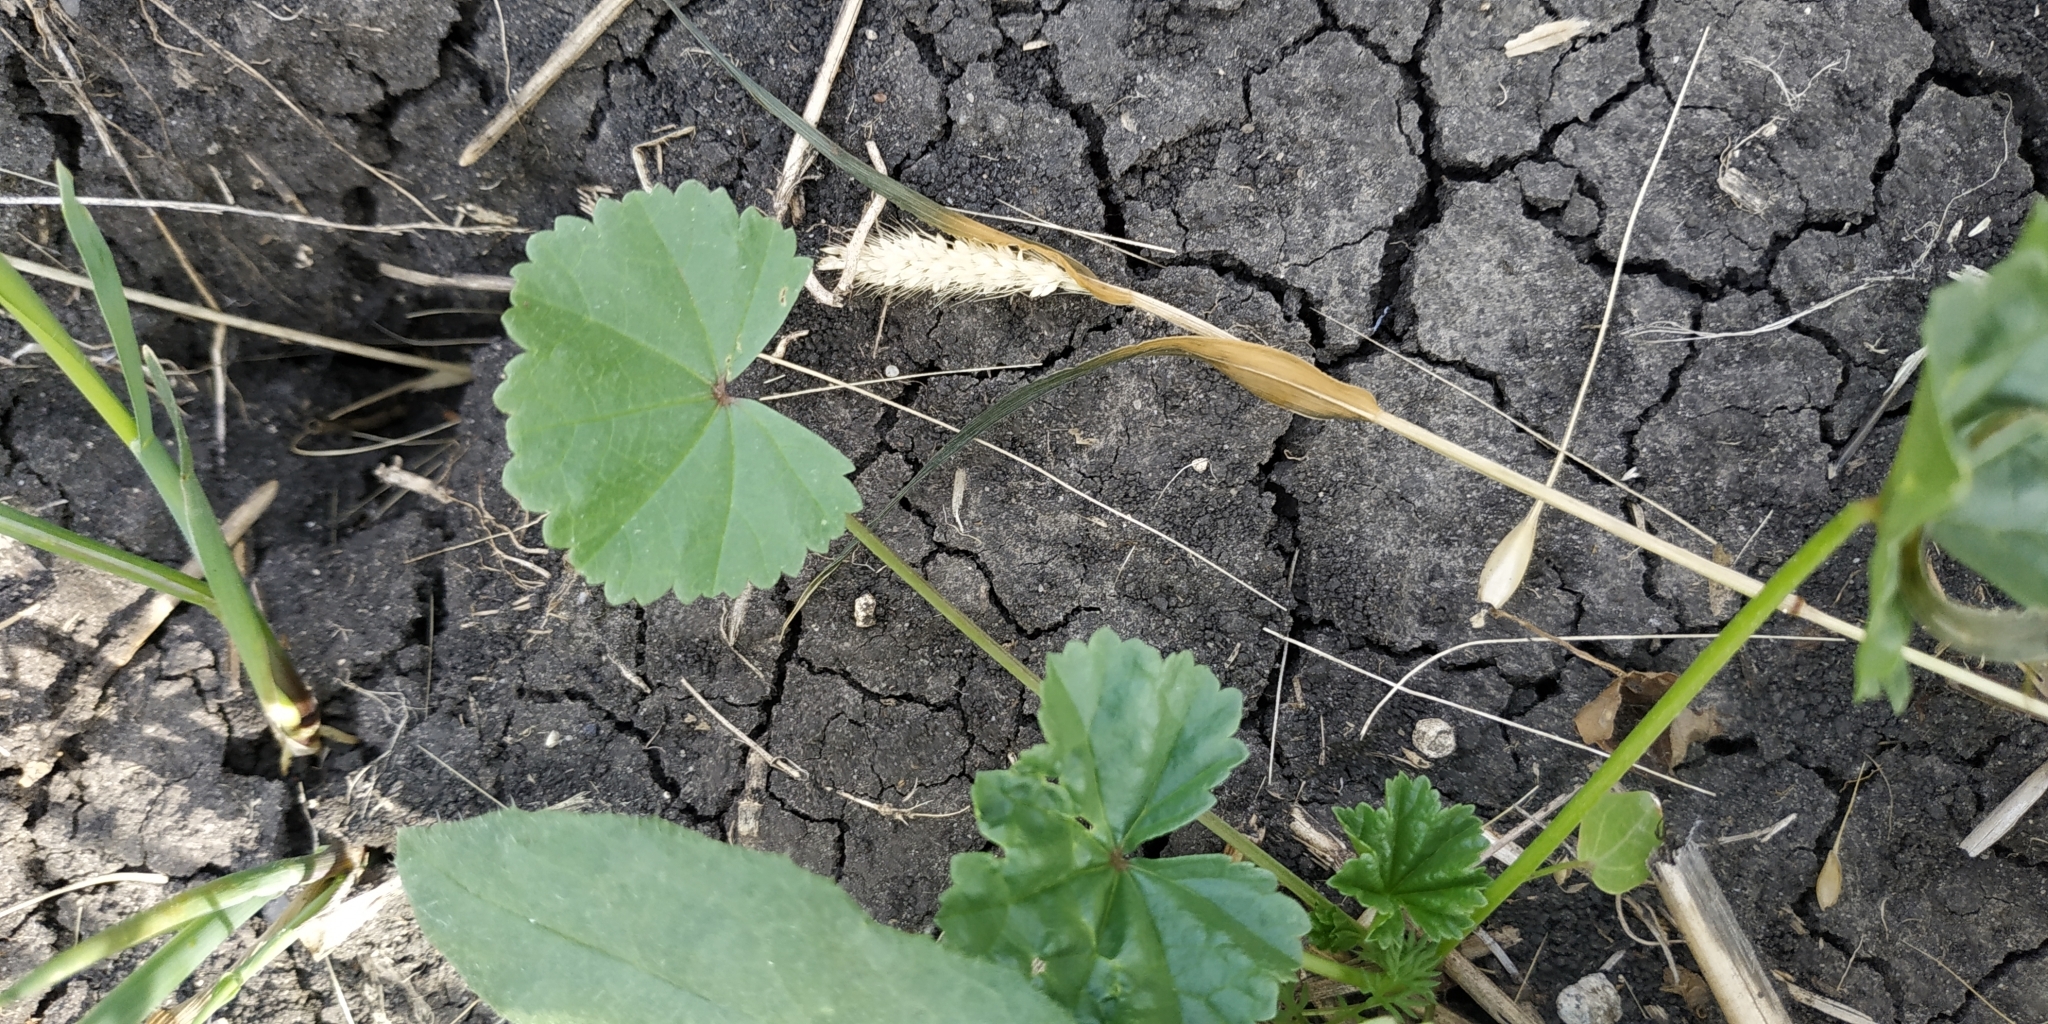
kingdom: Plantae
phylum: Tracheophyta
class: Magnoliopsida
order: Malvales
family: Malvaceae
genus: Malva
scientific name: Malva pusilla
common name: Small mallow
